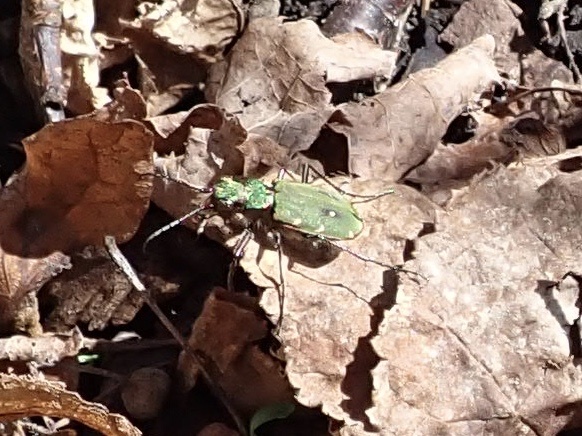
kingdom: Animalia
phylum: Arthropoda
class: Insecta
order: Coleoptera
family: Carabidae
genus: Cicindela
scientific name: Cicindela campestris
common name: Common tiger beetle
